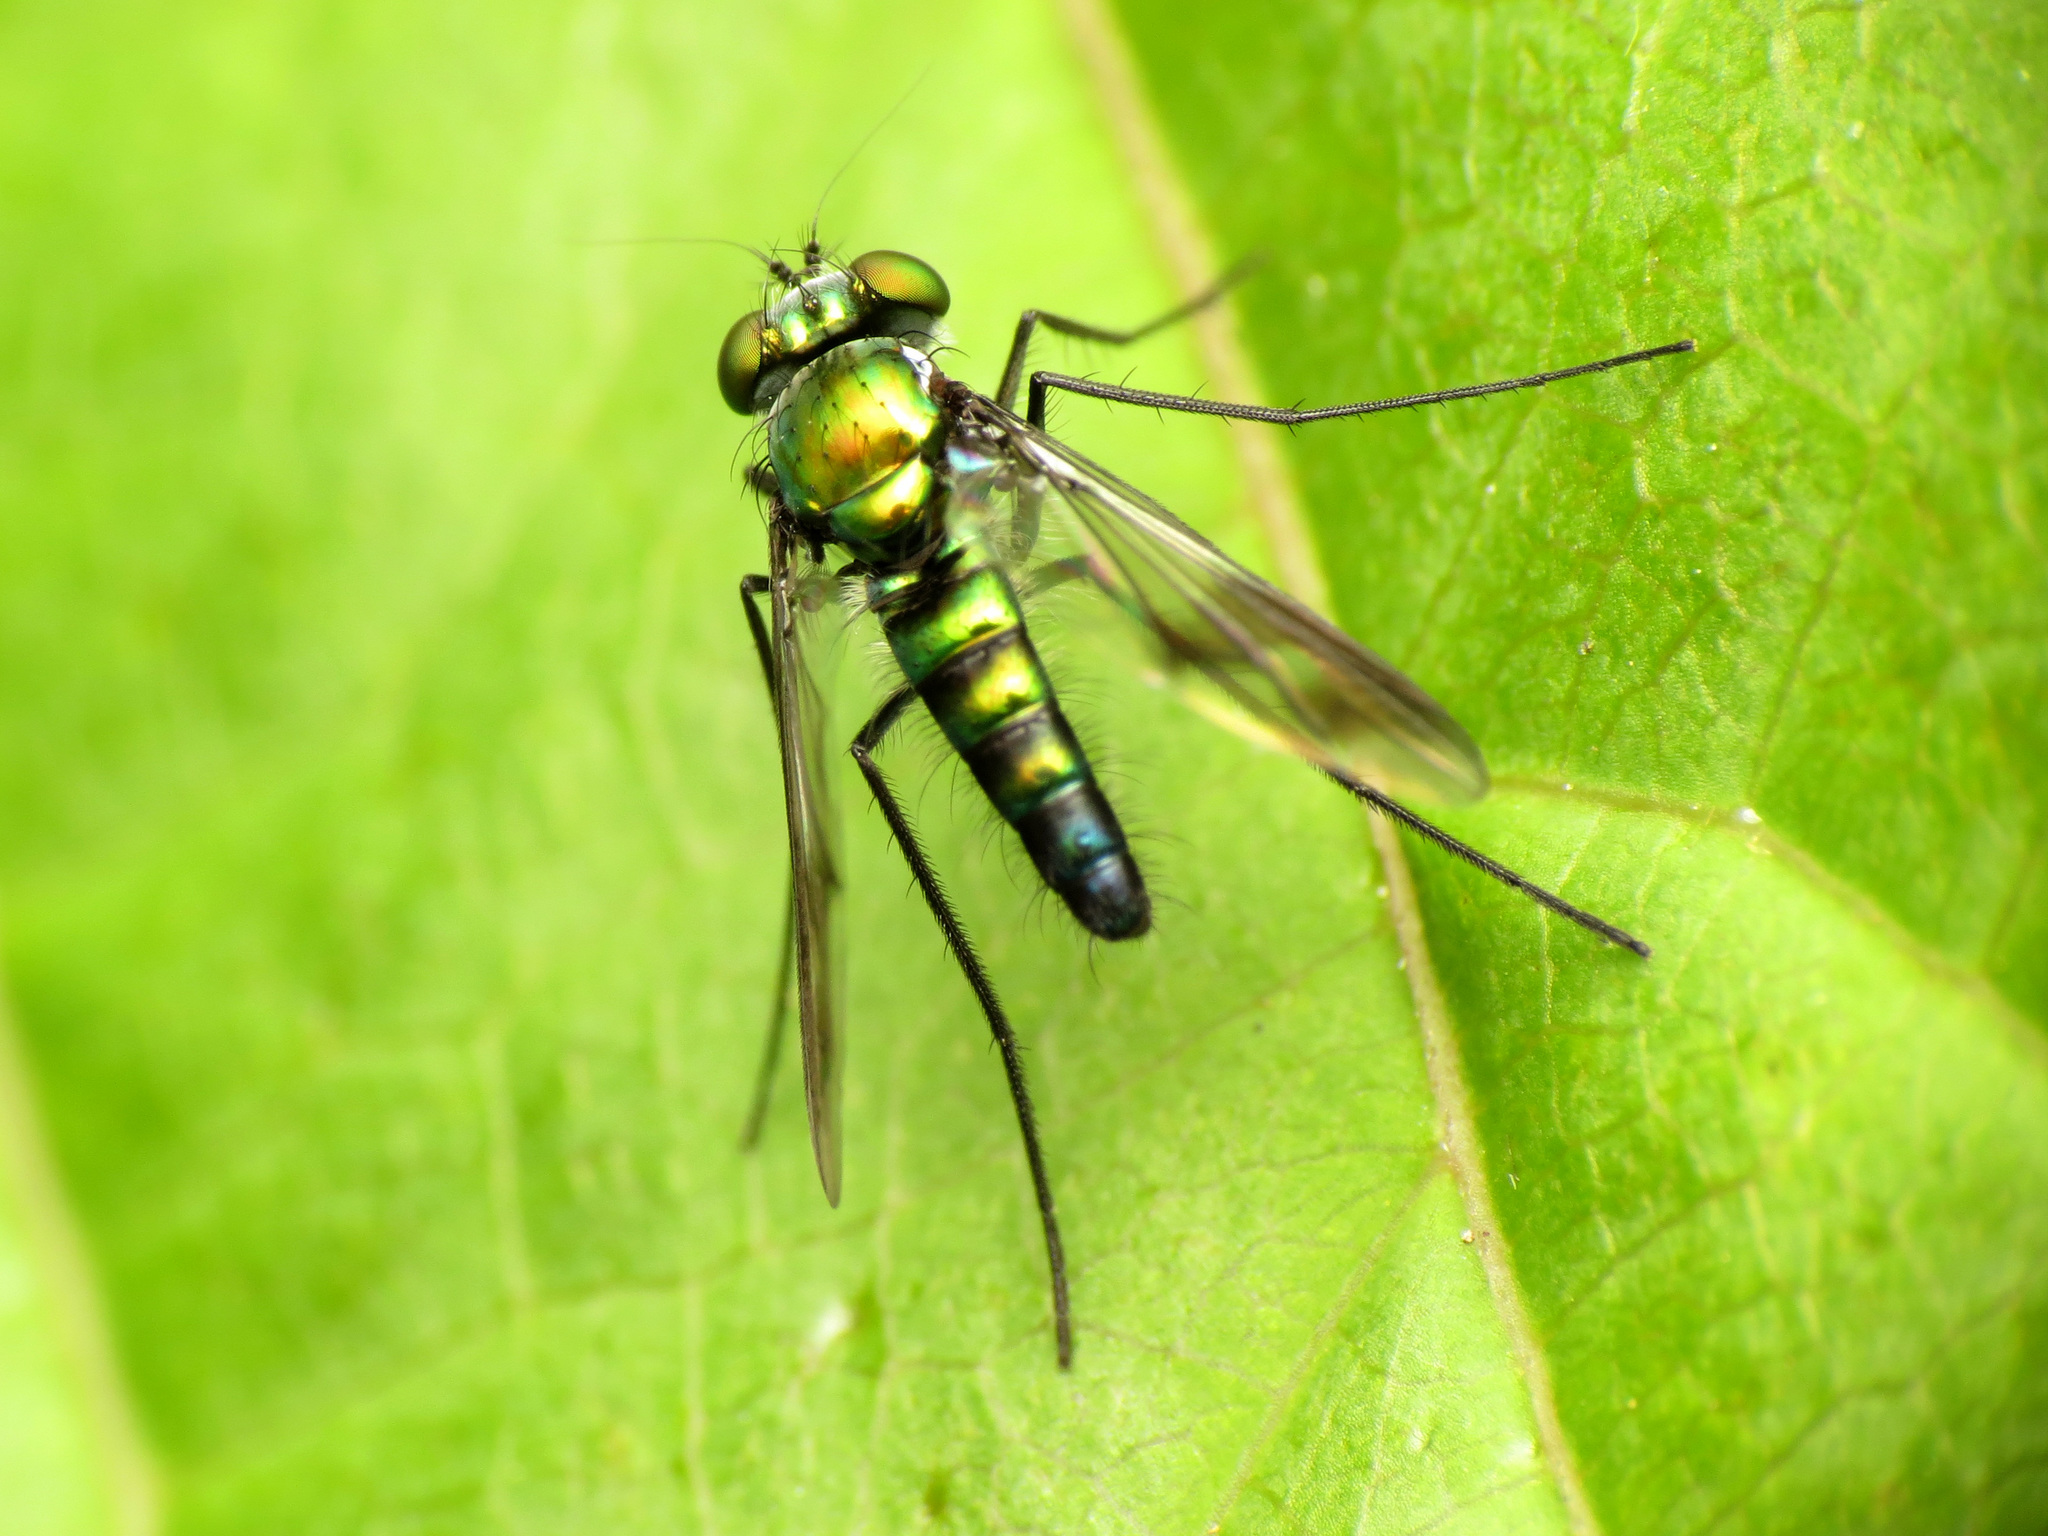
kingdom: Animalia
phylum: Arthropoda
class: Insecta
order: Diptera
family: Dolichopodidae
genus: Condylostylus
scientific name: Condylostylus patibulatus
